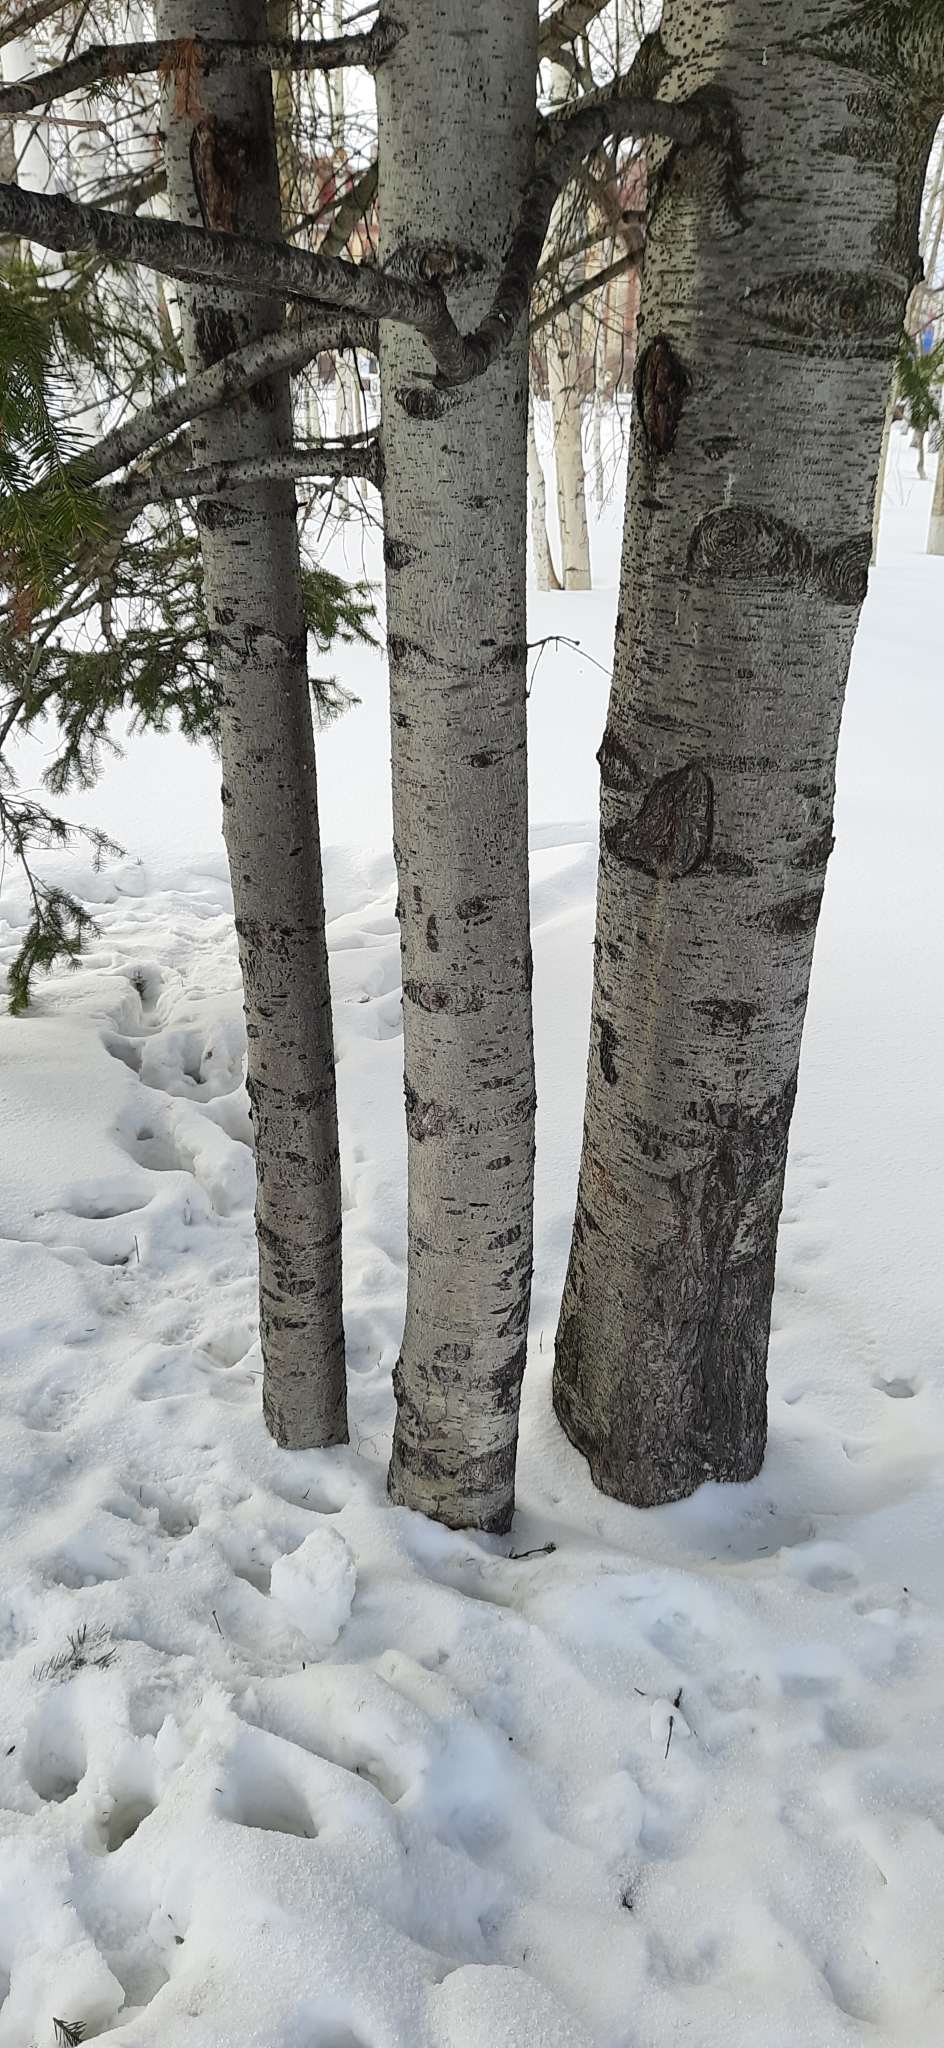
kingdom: Plantae
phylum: Tracheophyta
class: Pinopsida
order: Pinales
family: Pinaceae
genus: Abies
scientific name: Abies sibirica
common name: Siberian fir
